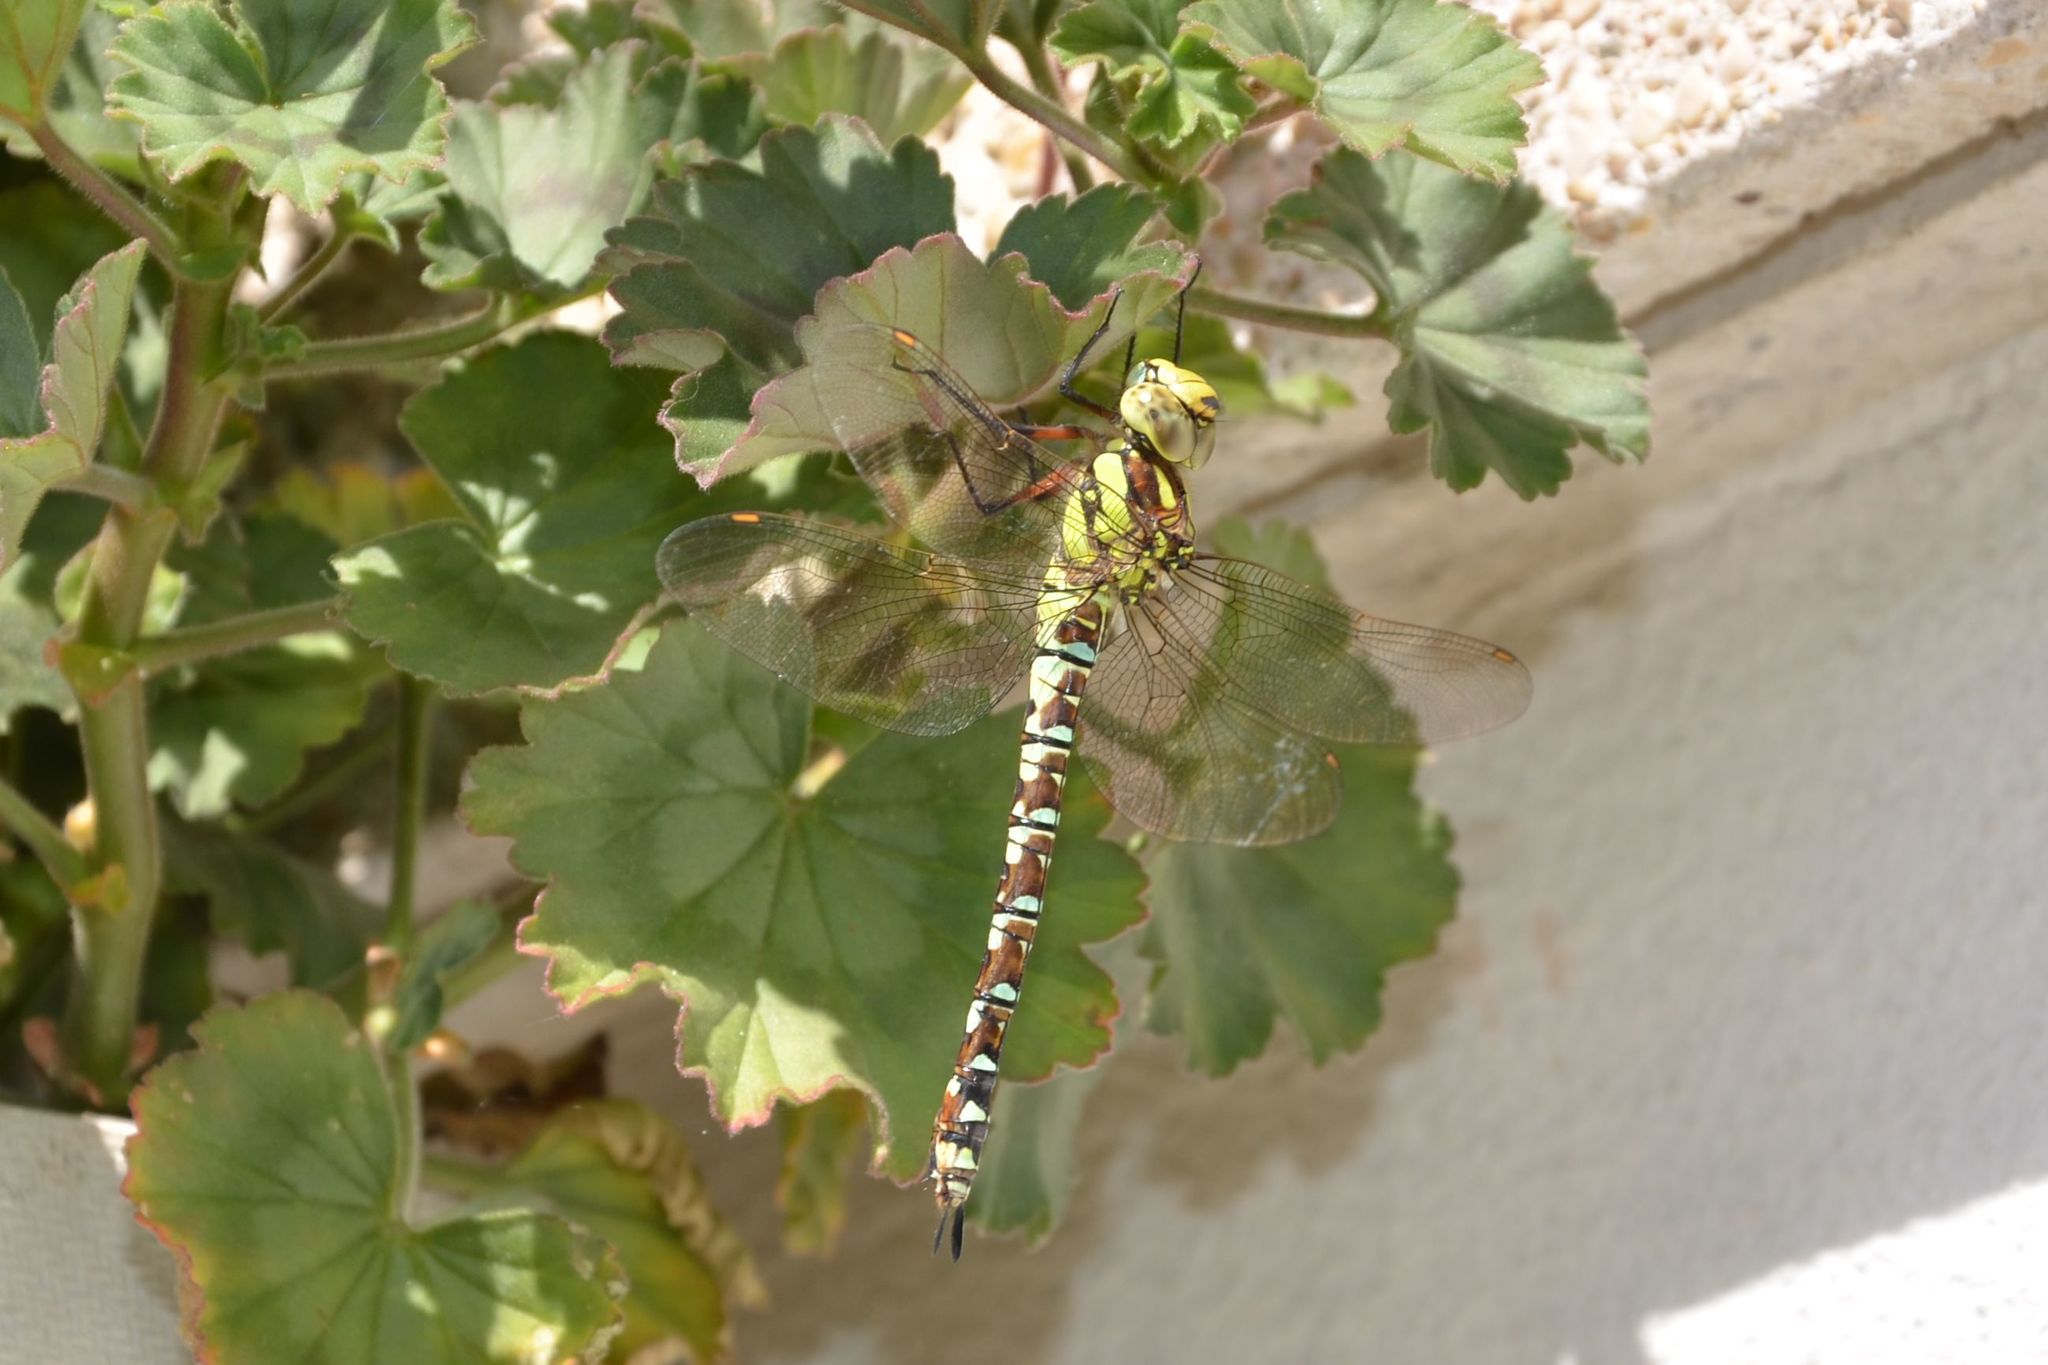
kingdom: Animalia
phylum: Arthropoda
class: Insecta
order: Odonata
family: Aeshnidae
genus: Aeshna
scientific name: Aeshna cyanea
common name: Southern hawker
